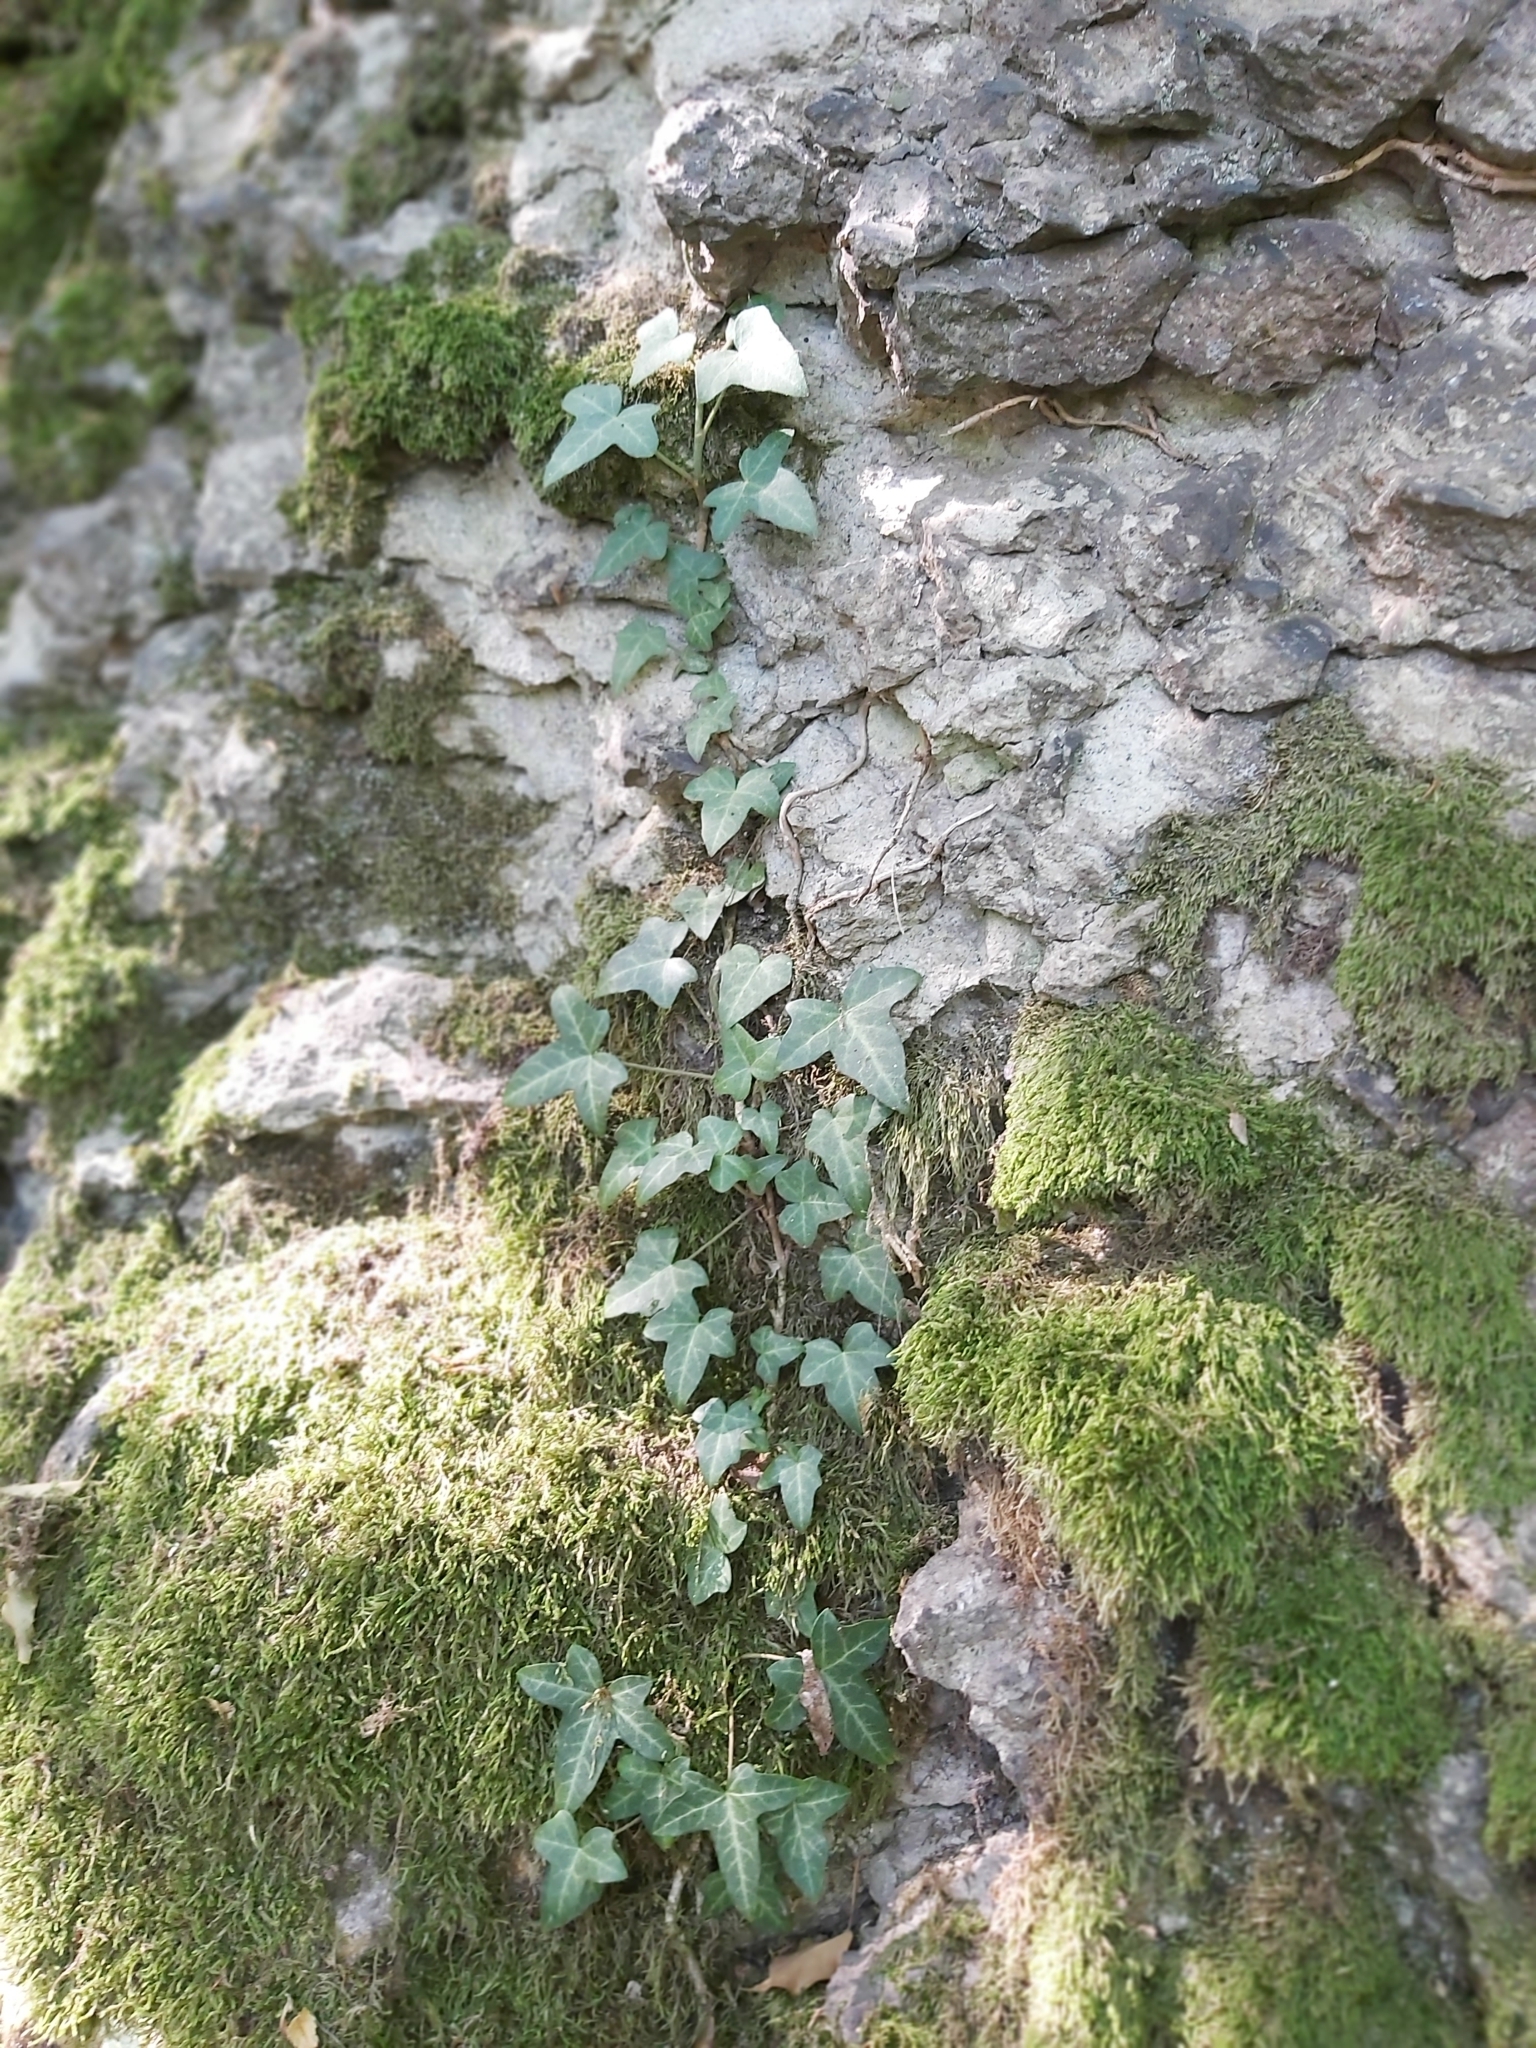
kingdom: Plantae
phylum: Tracheophyta
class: Magnoliopsida
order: Apiales
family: Araliaceae
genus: Hedera
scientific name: Hedera helix
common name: Ivy
